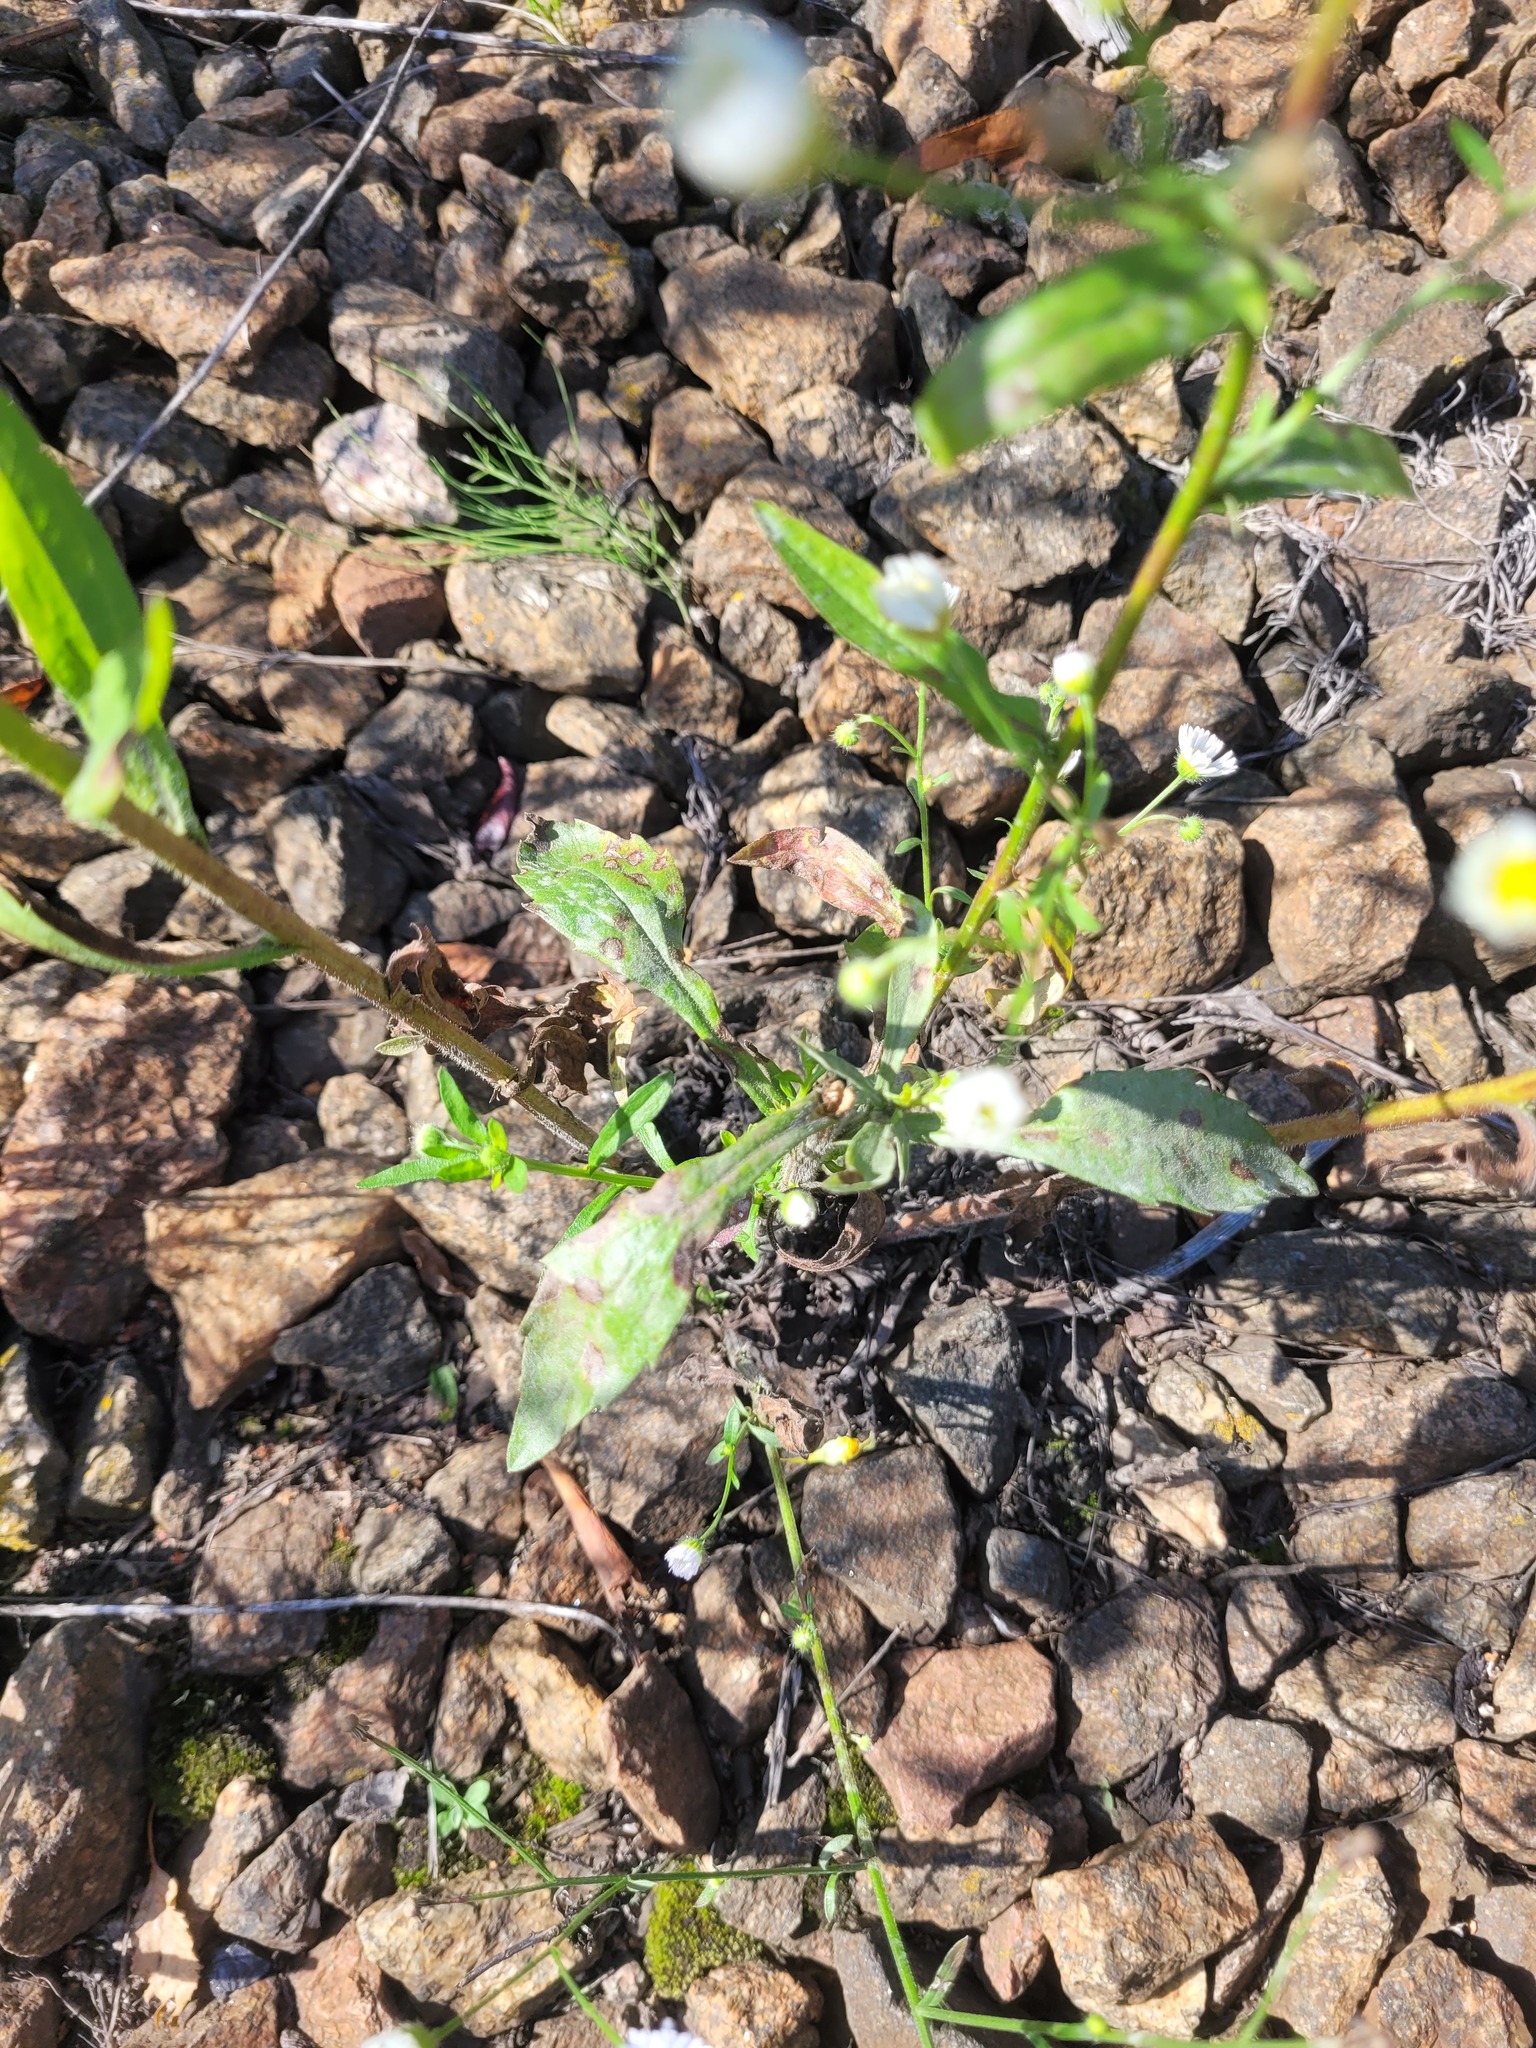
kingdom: Plantae
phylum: Tracheophyta
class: Magnoliopsida
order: Asterales
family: Asteraceae
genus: Erigeron
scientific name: Erigeron annuus
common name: Tall fleabane
